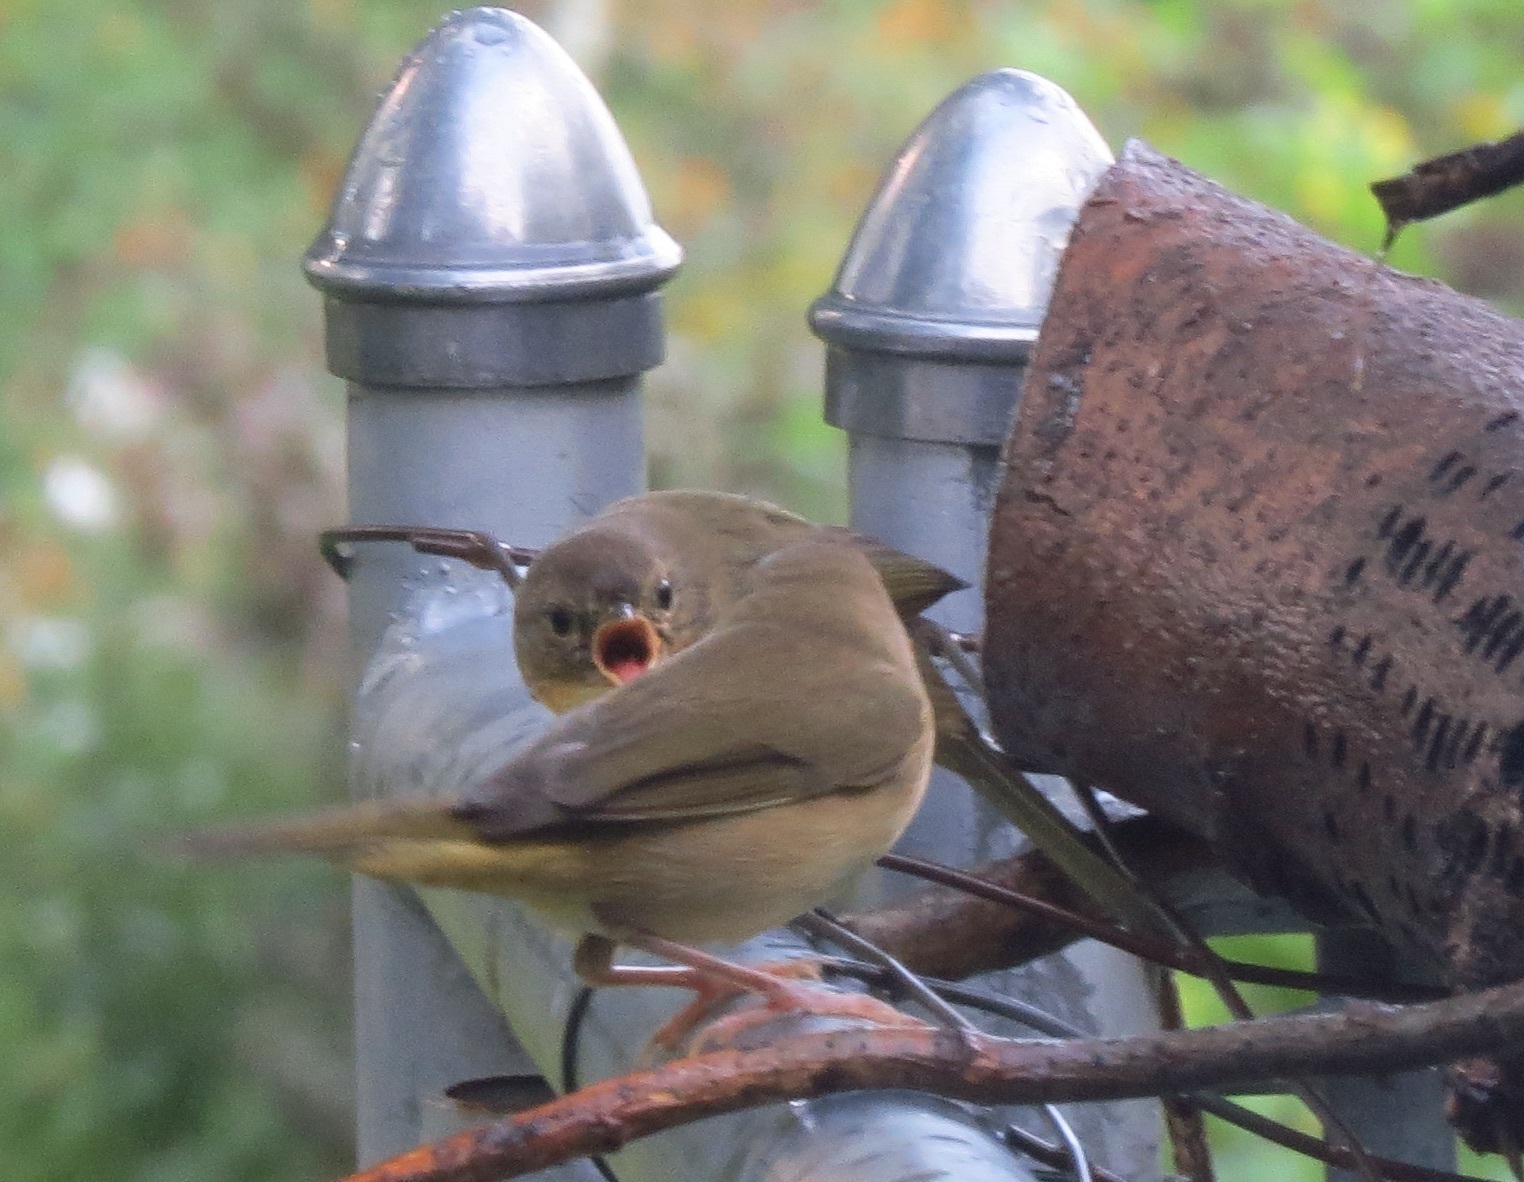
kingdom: Animalia
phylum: Chordata
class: Aves
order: Passeriformes
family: Parulidae
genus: Geothlypis
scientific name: Geothlypis trichas
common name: Common yellowthroat
